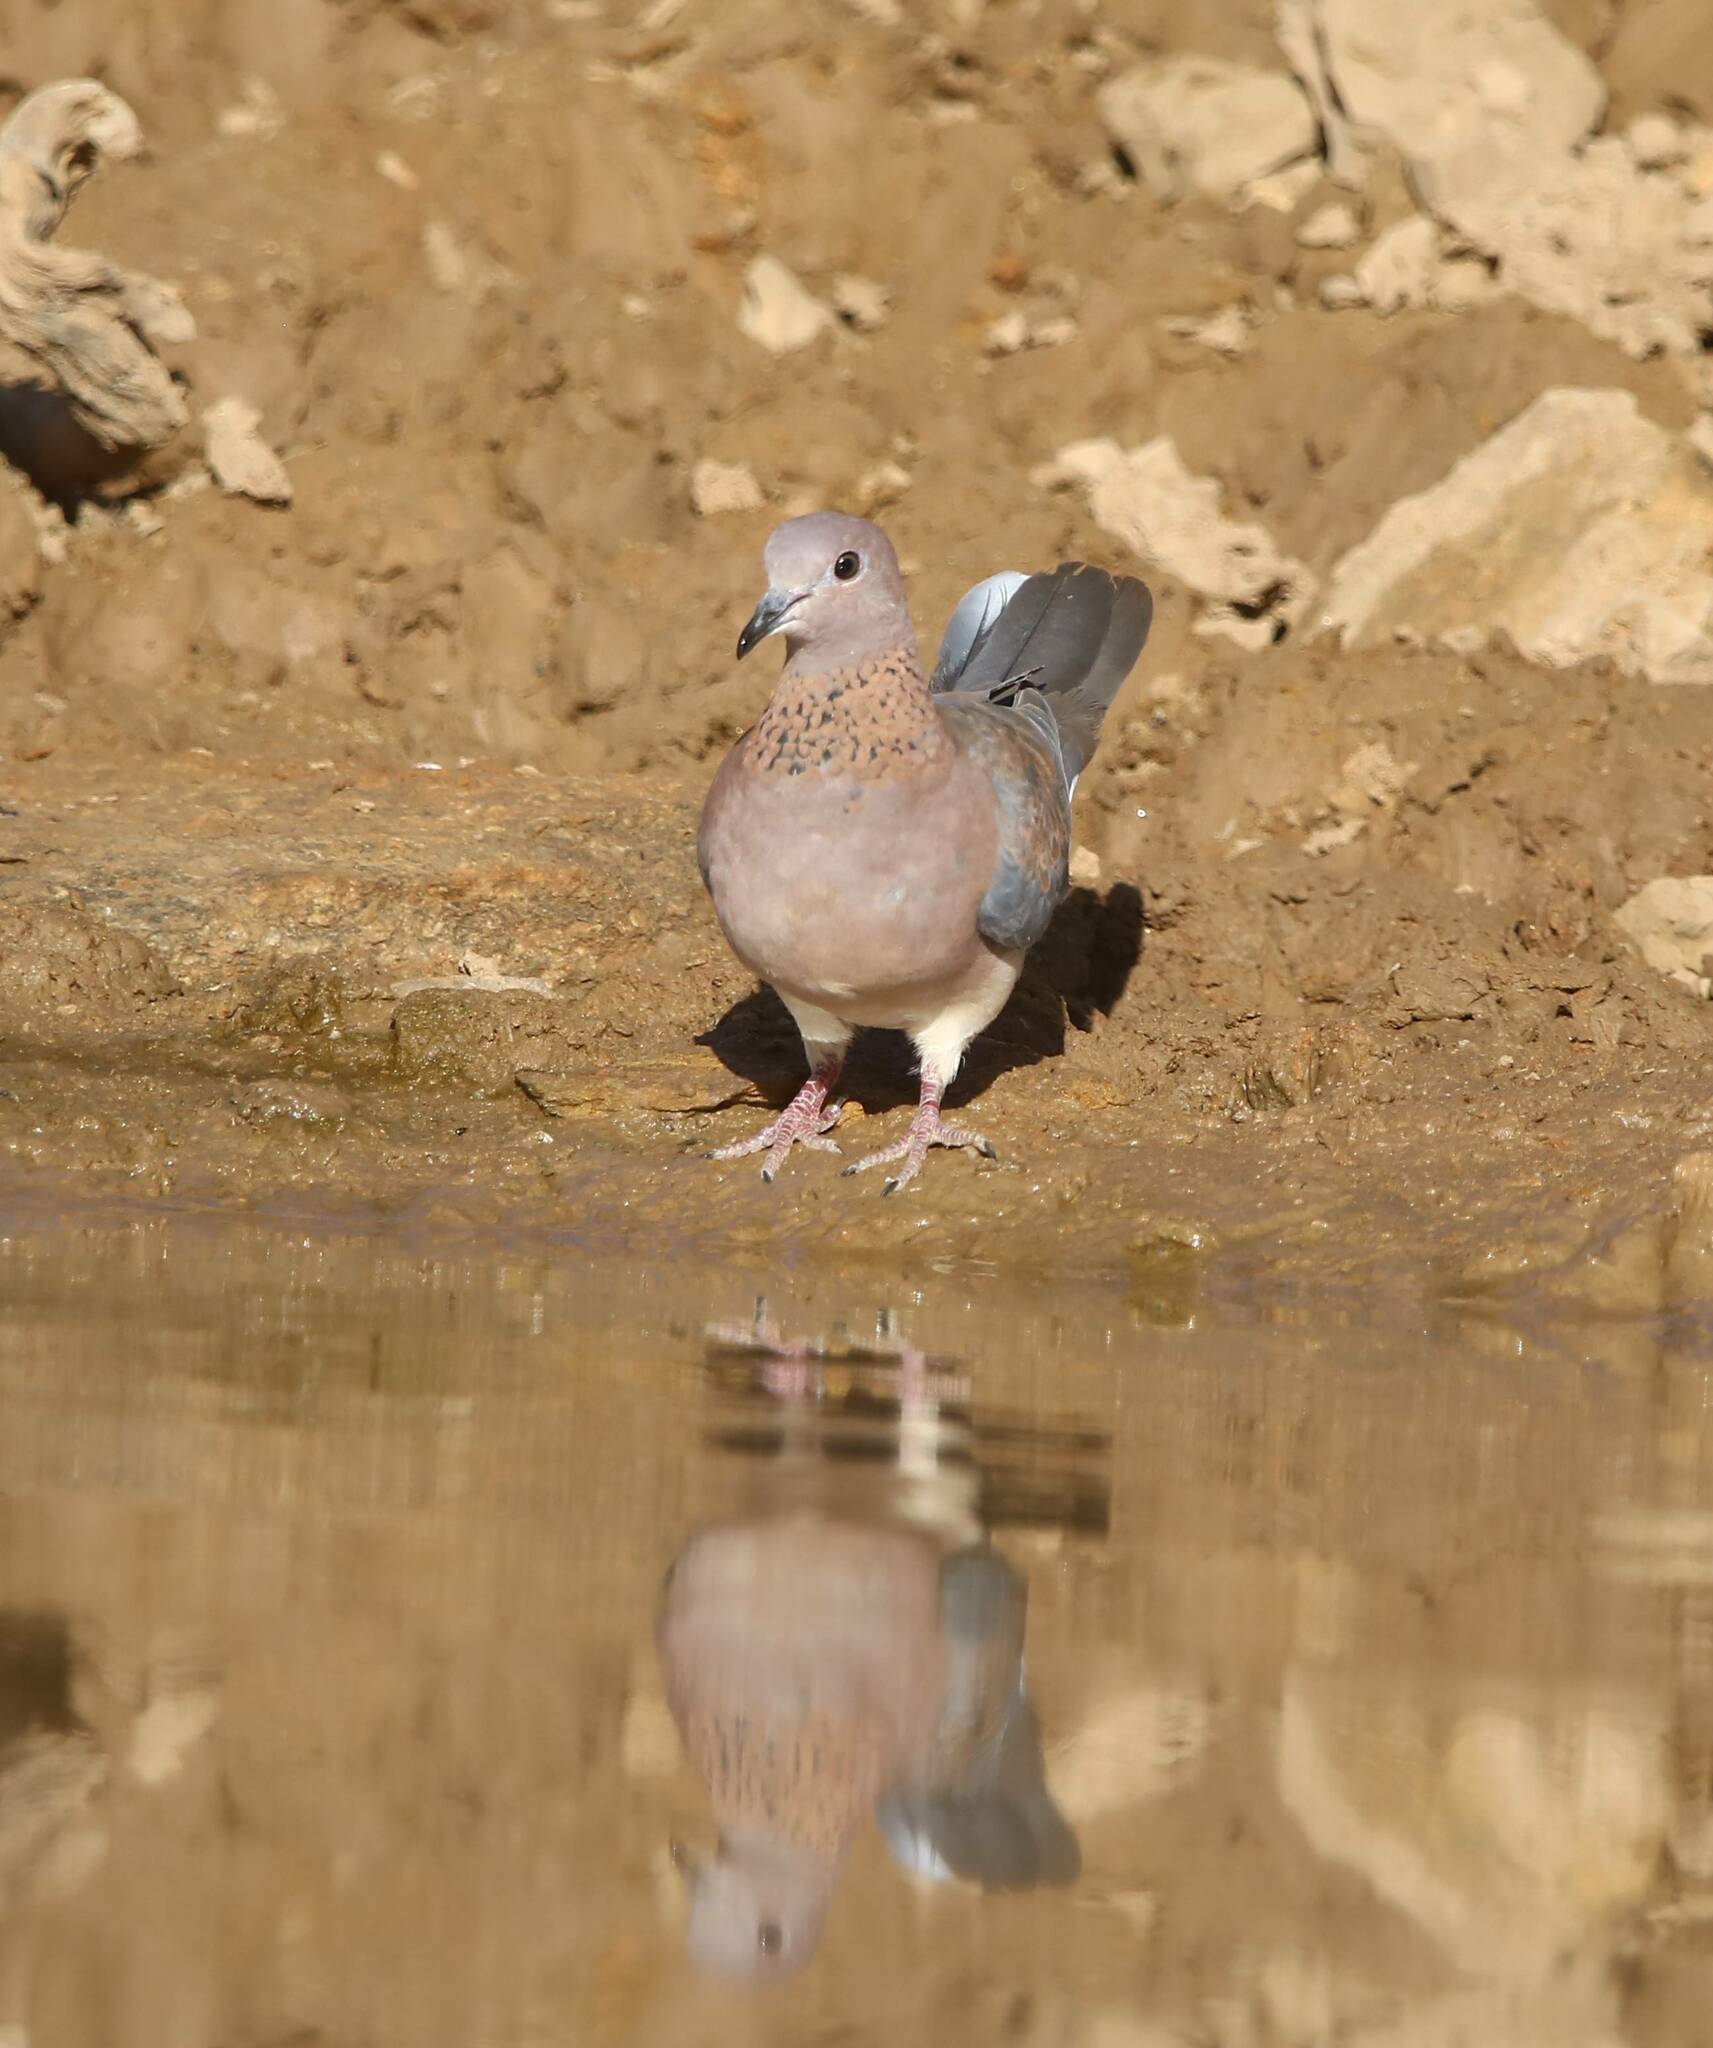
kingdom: Animalia
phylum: Chordata
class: Aves
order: Columbiformes
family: Columbidae
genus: Spilopelia
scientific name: Spilopelia senegalensis
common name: Laughing dove
